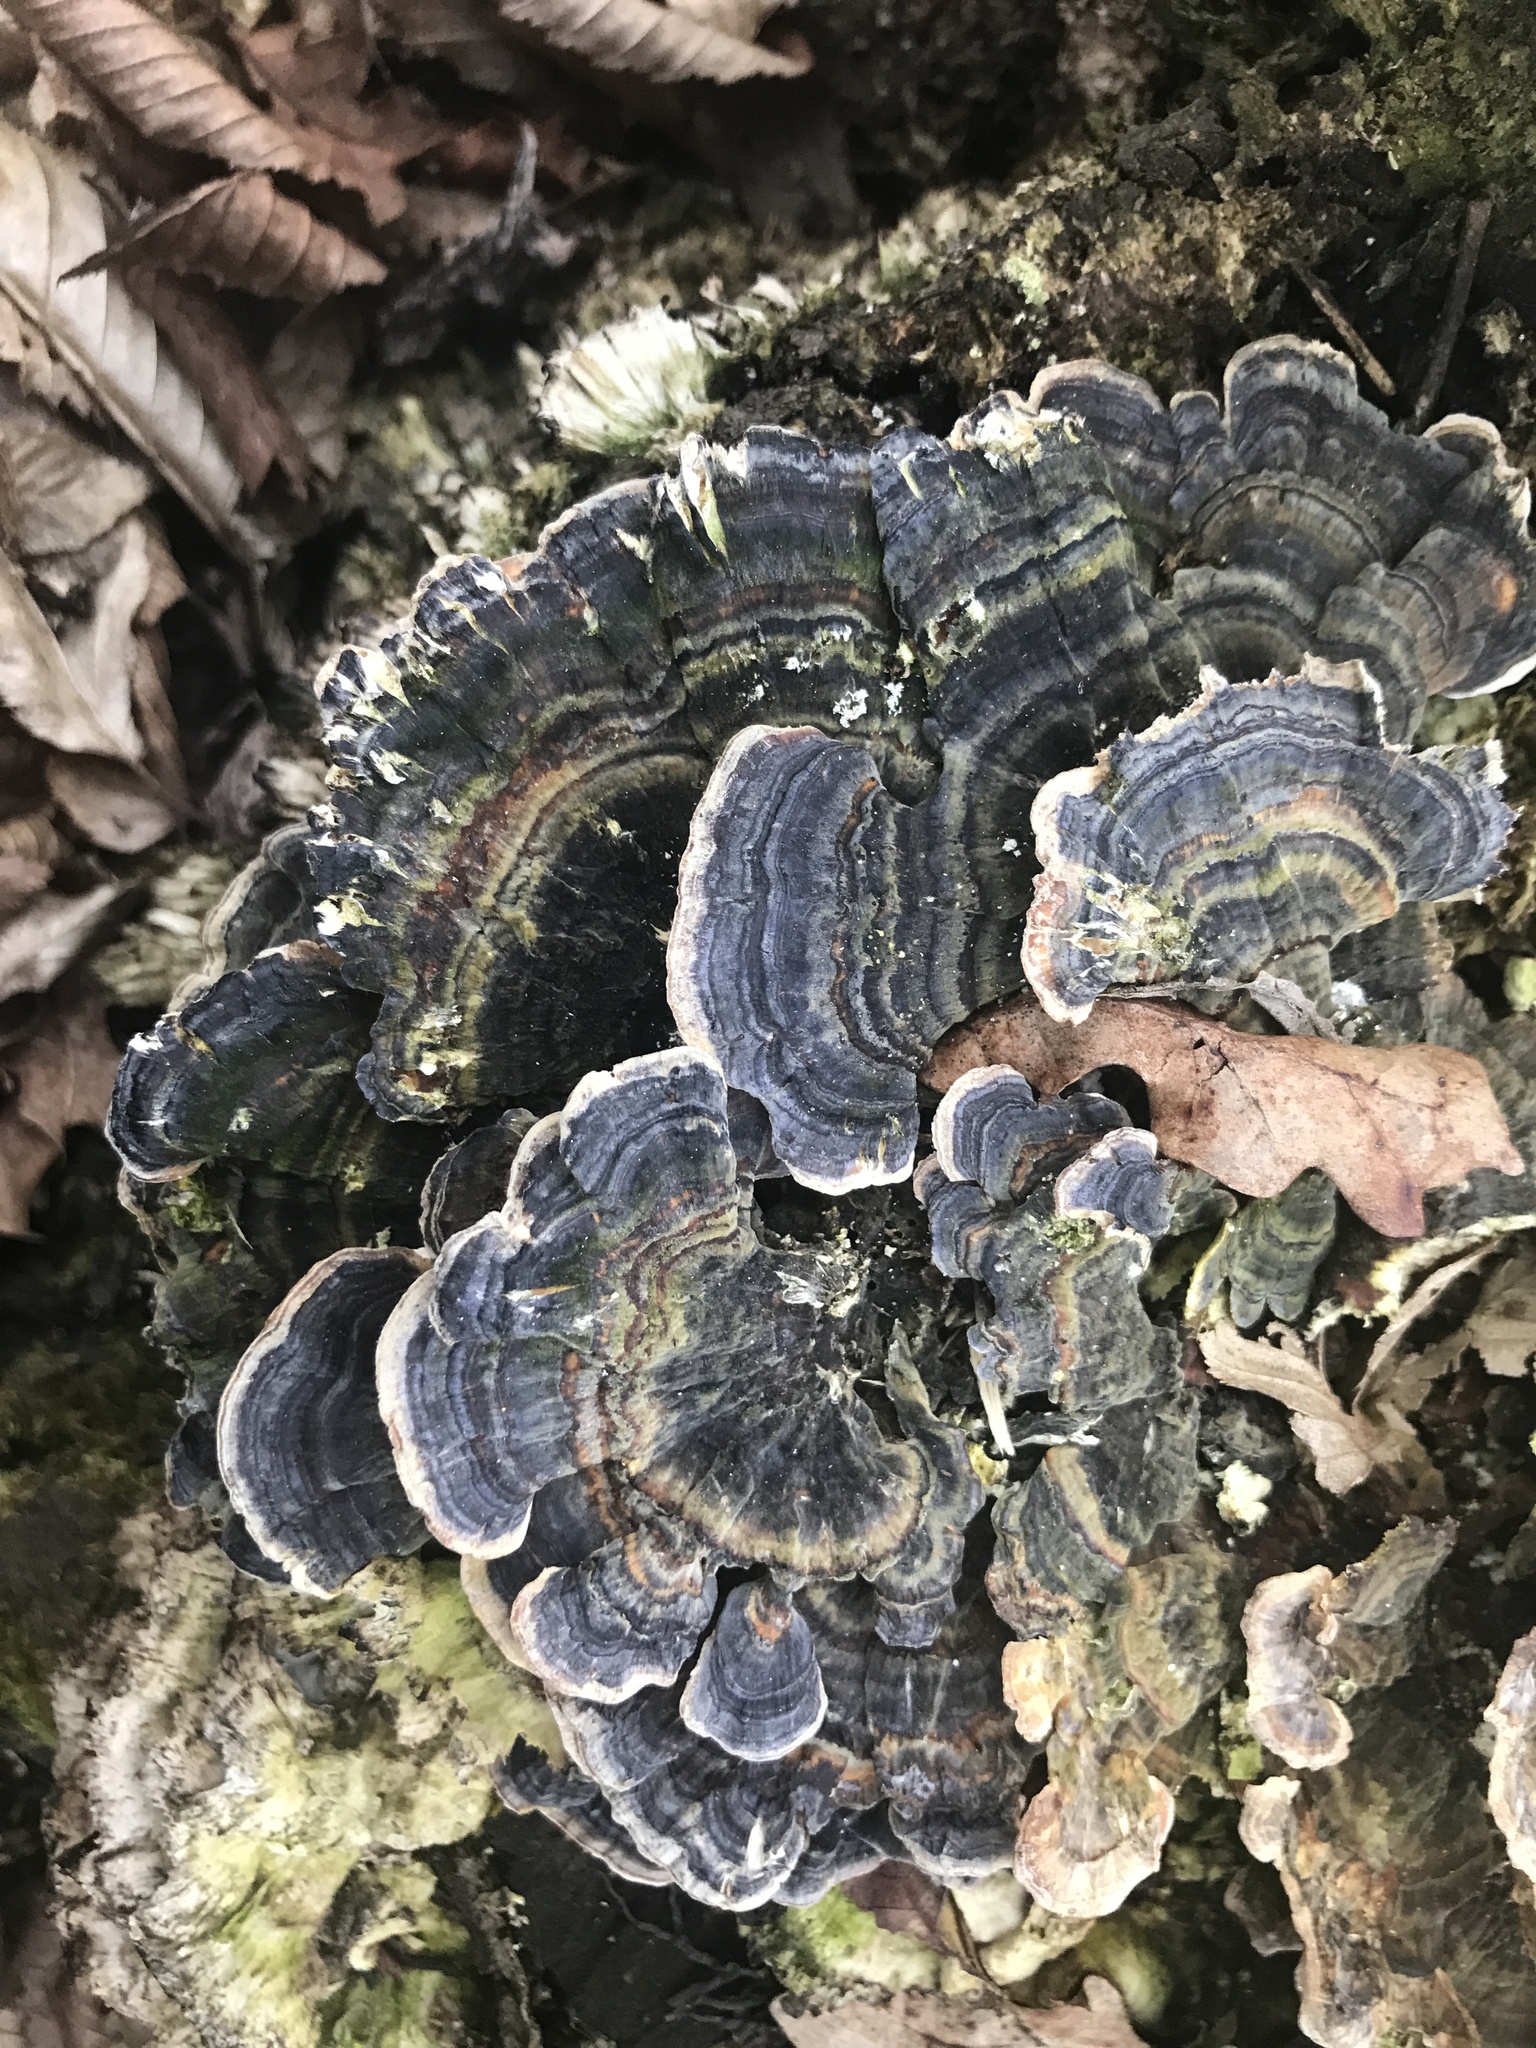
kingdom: Fungi
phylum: Basidiomycota
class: Agaricomycetes
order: Polyporales
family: Polyporaceae
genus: Trametes
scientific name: Trametes versicolor
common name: Turkeytail
